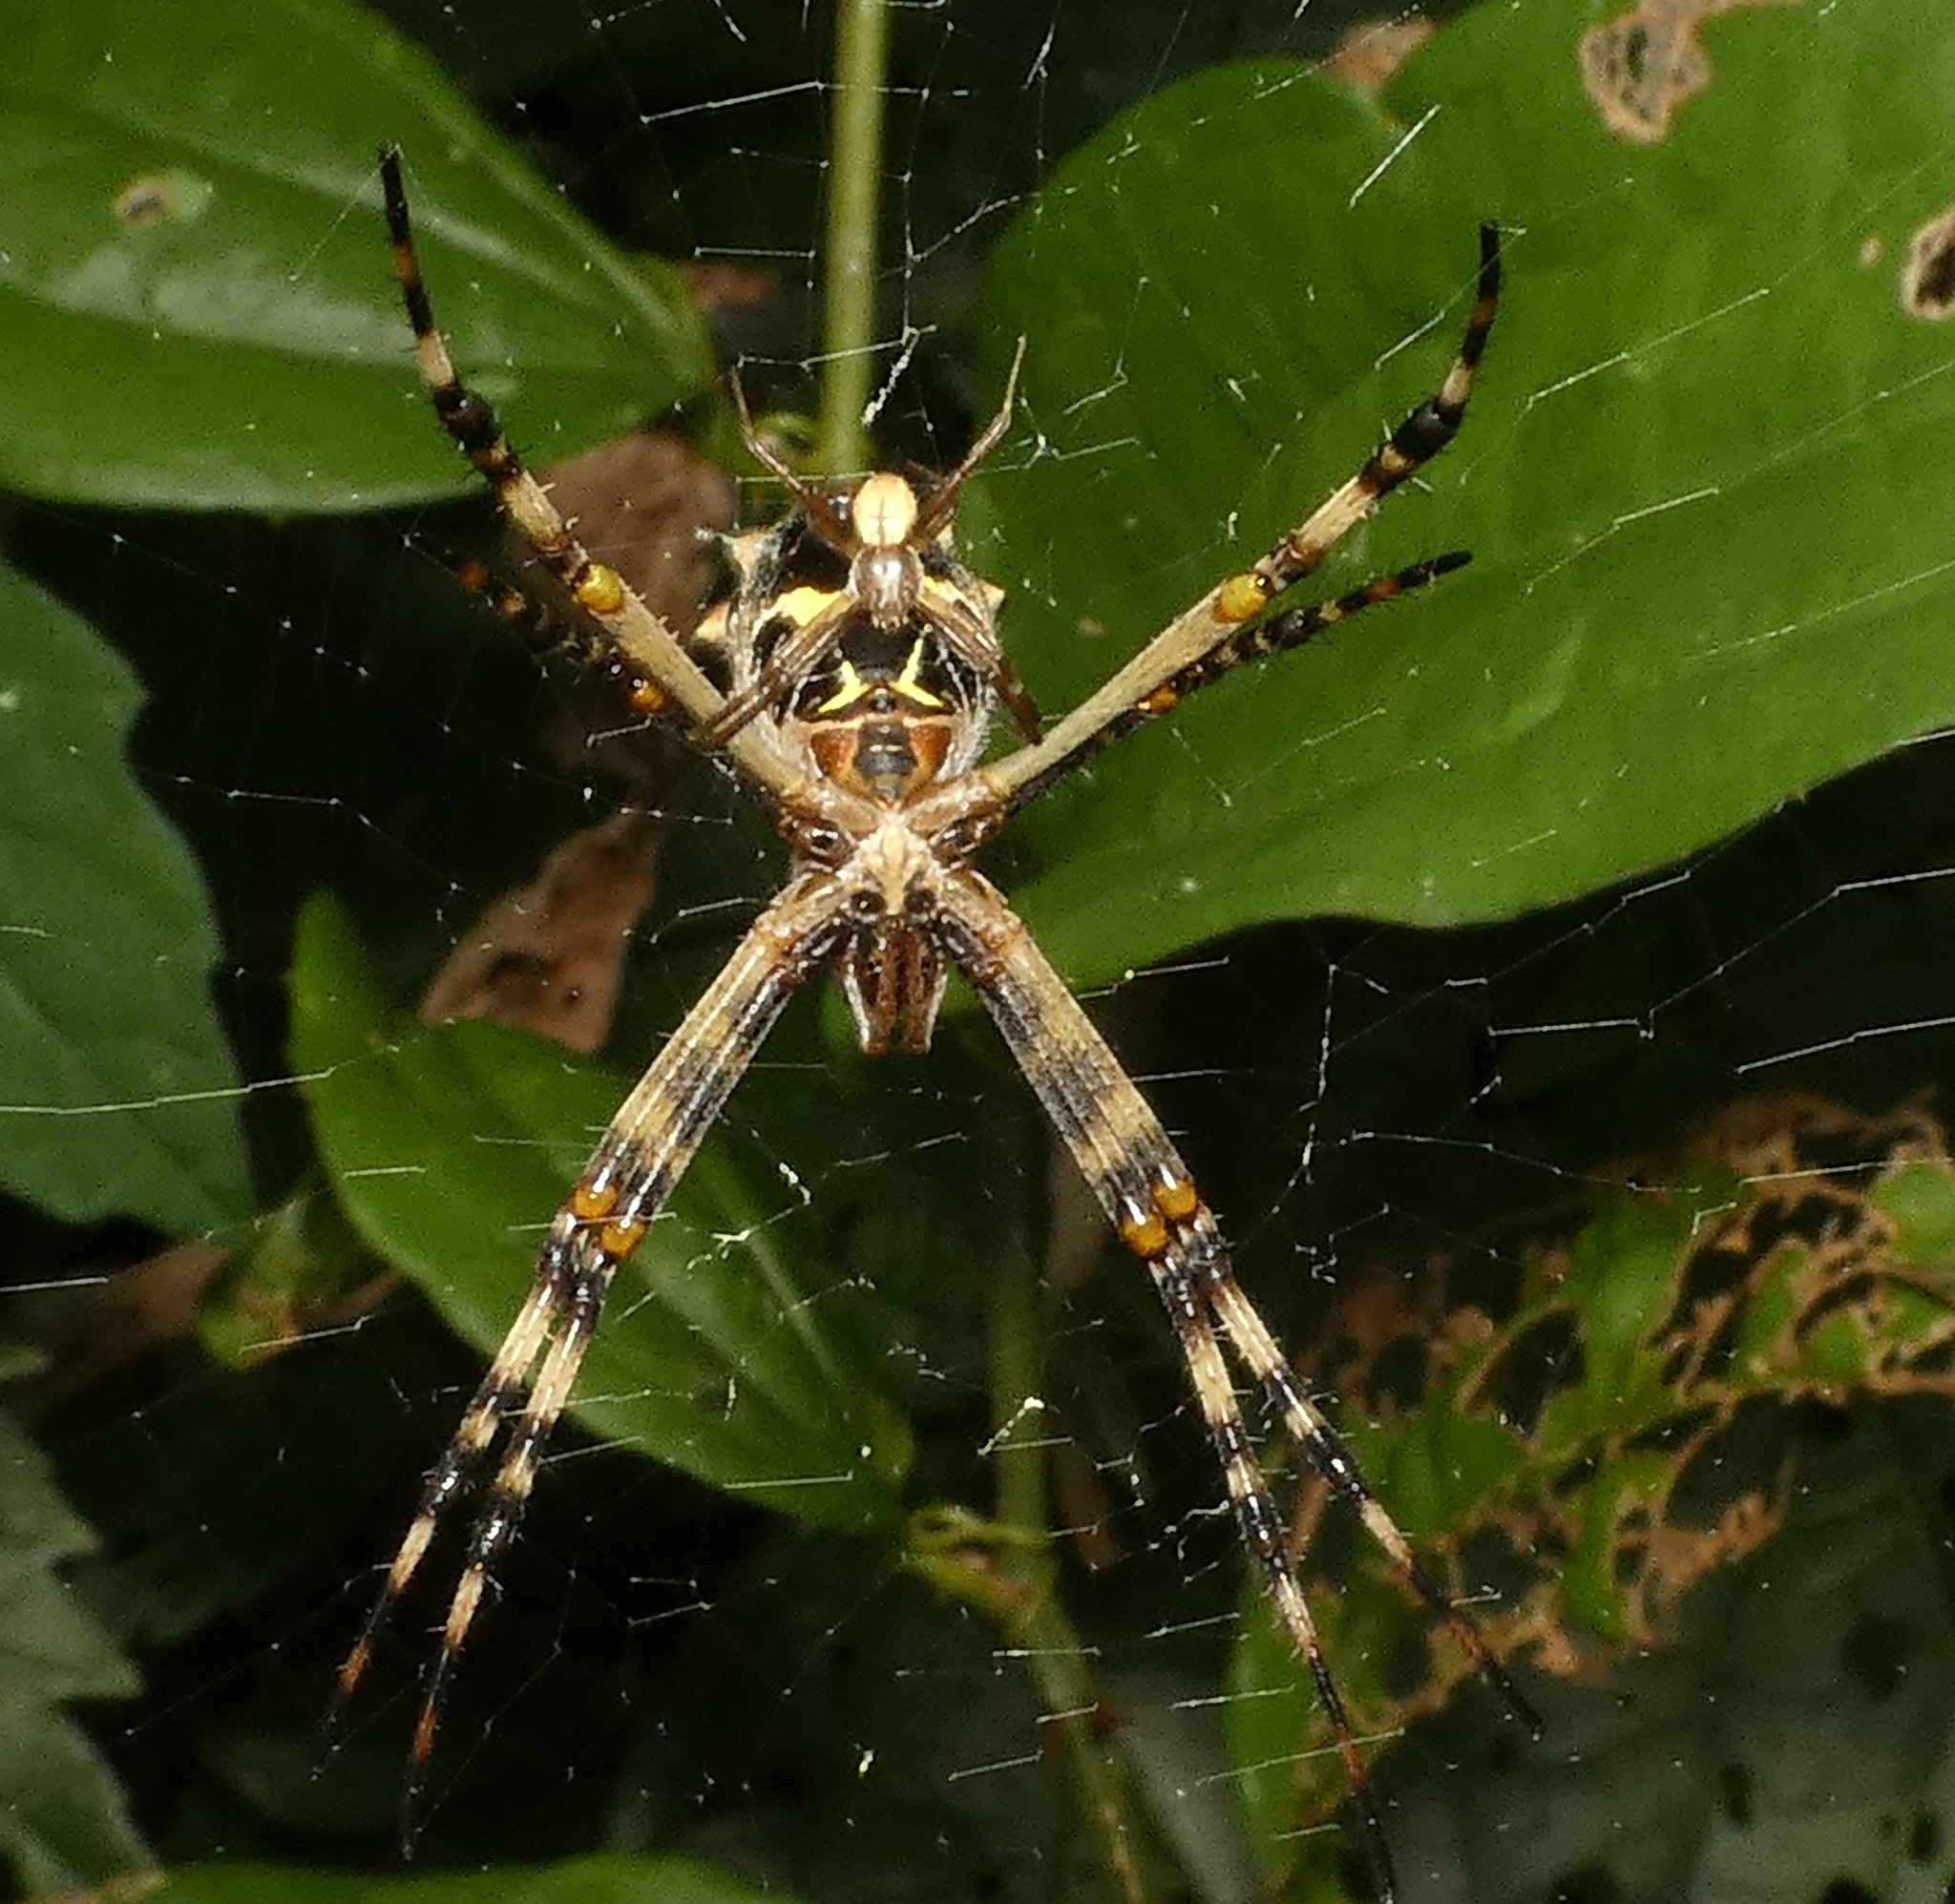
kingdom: Animalia
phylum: Arthropoda
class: Arachnida
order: Araneae
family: Araneidae
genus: Argiope
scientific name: Argiope argentata
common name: Orb weavers
